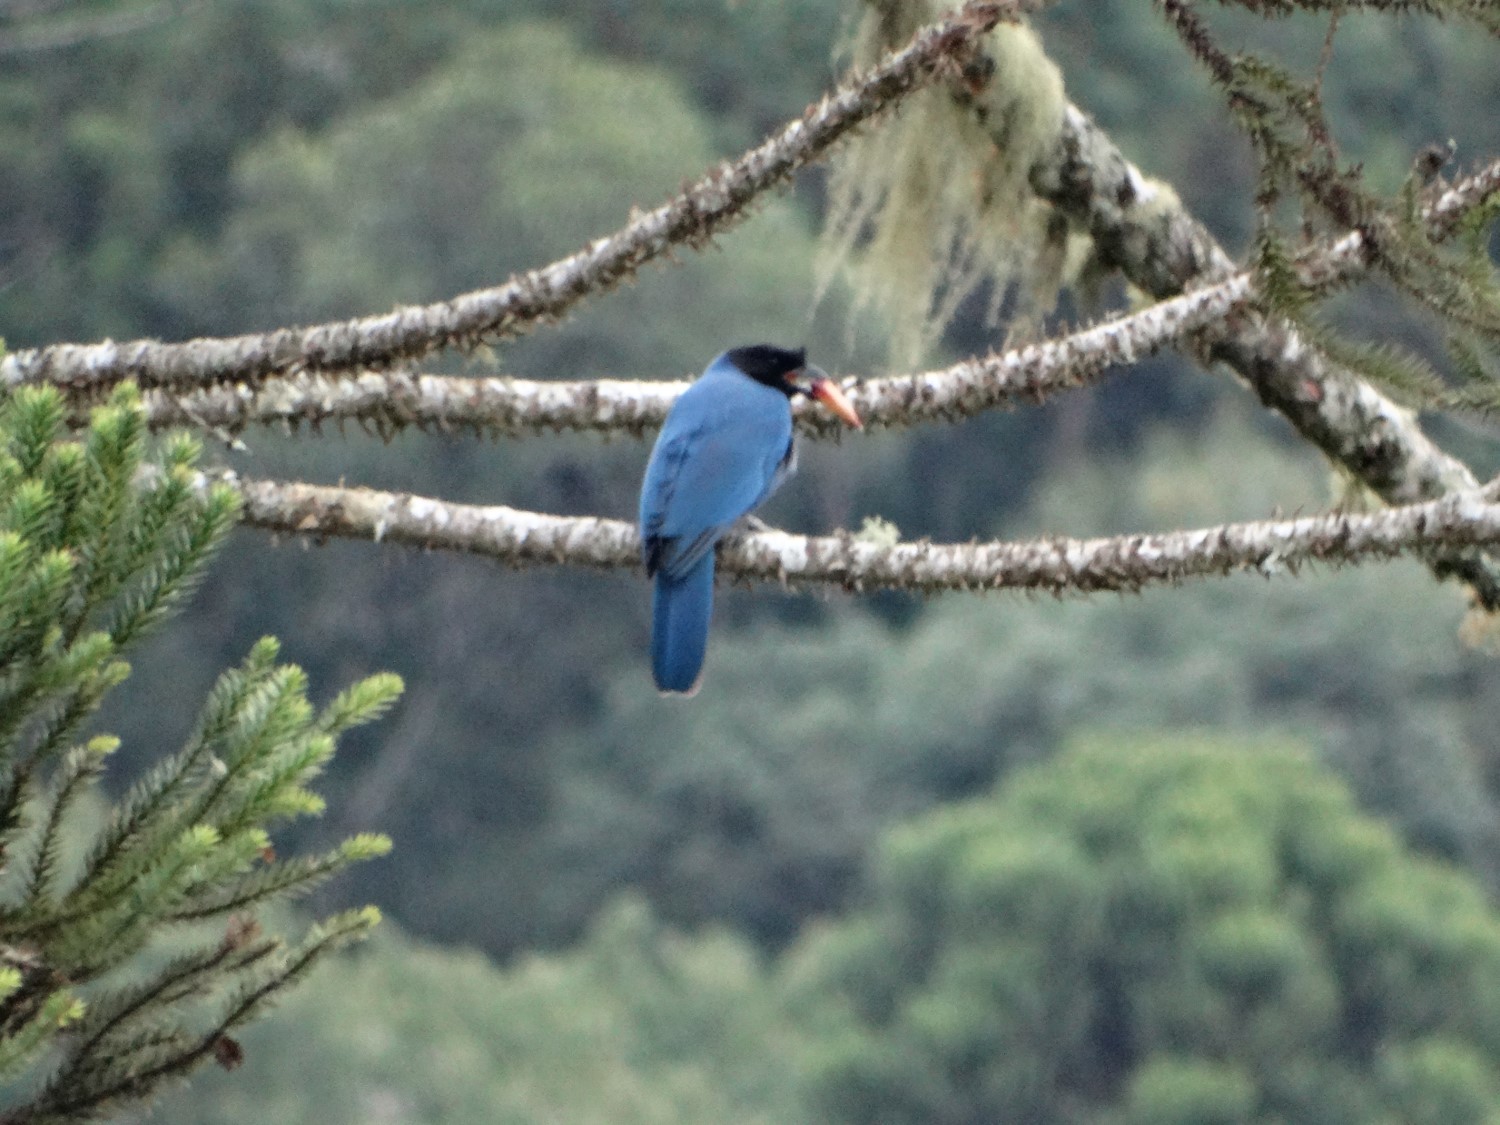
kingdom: Animalia
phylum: Chordata
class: Aves
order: Passeriformes
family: Corvidae
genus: Cyanocorax
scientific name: Cyanocorax caeruleus
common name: Azure jay
